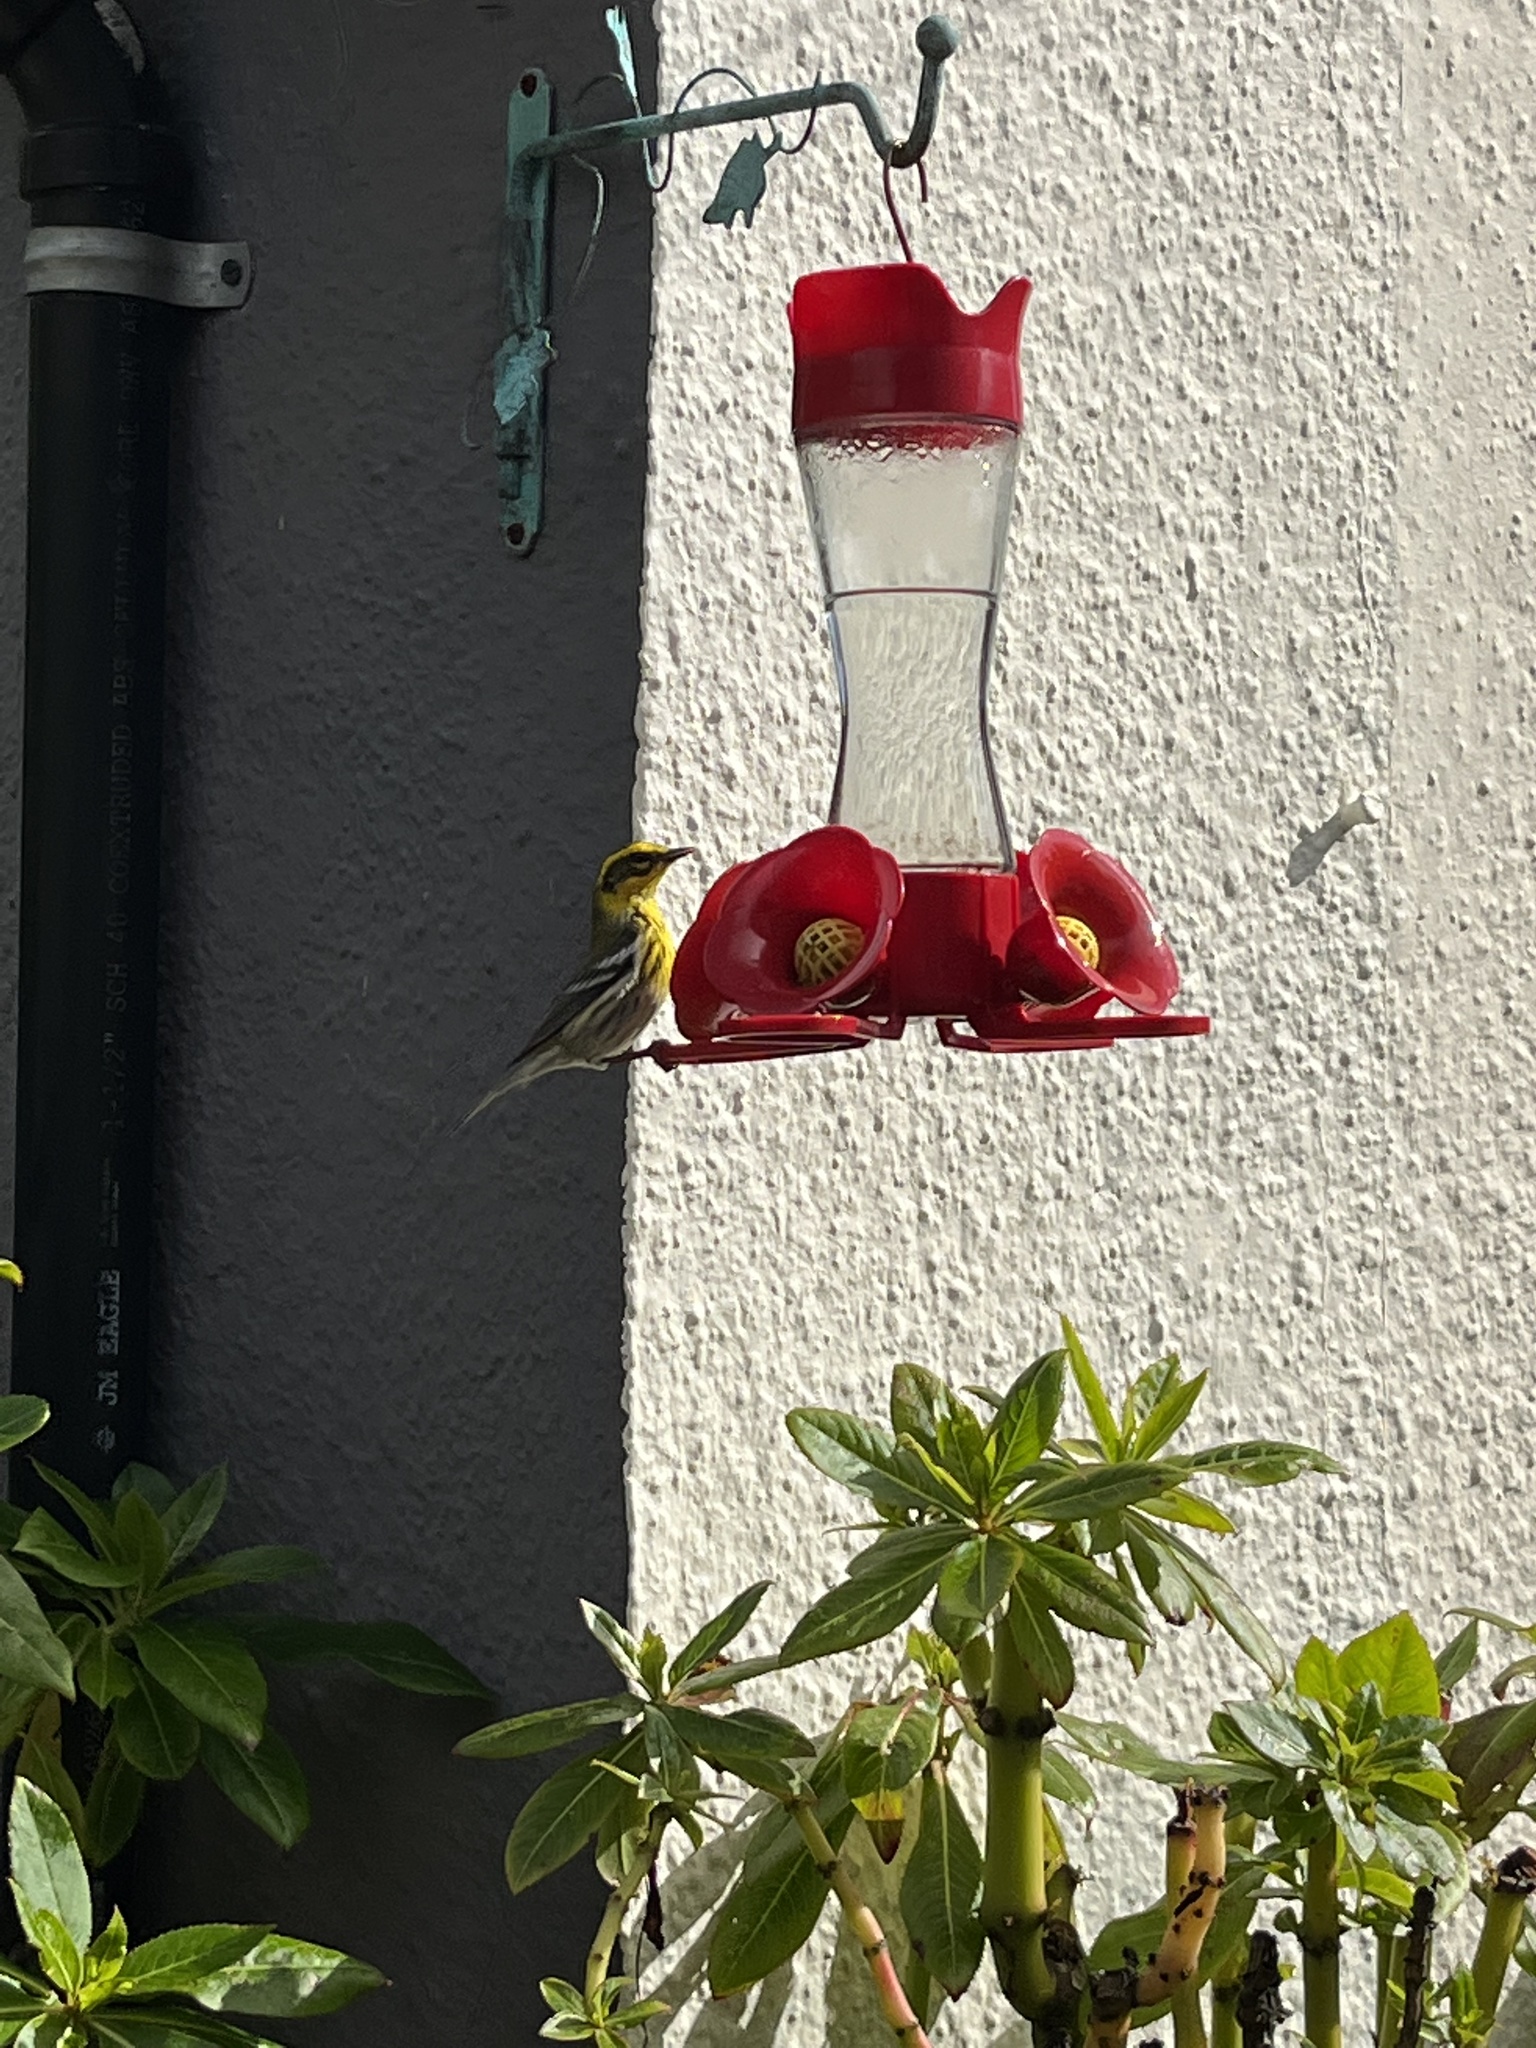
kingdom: Animalia
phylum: Chordata
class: Aves
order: Passeriformes
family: Parulidae
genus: Setophaga
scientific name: Setophaga townsendi
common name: Townsend's warbler
